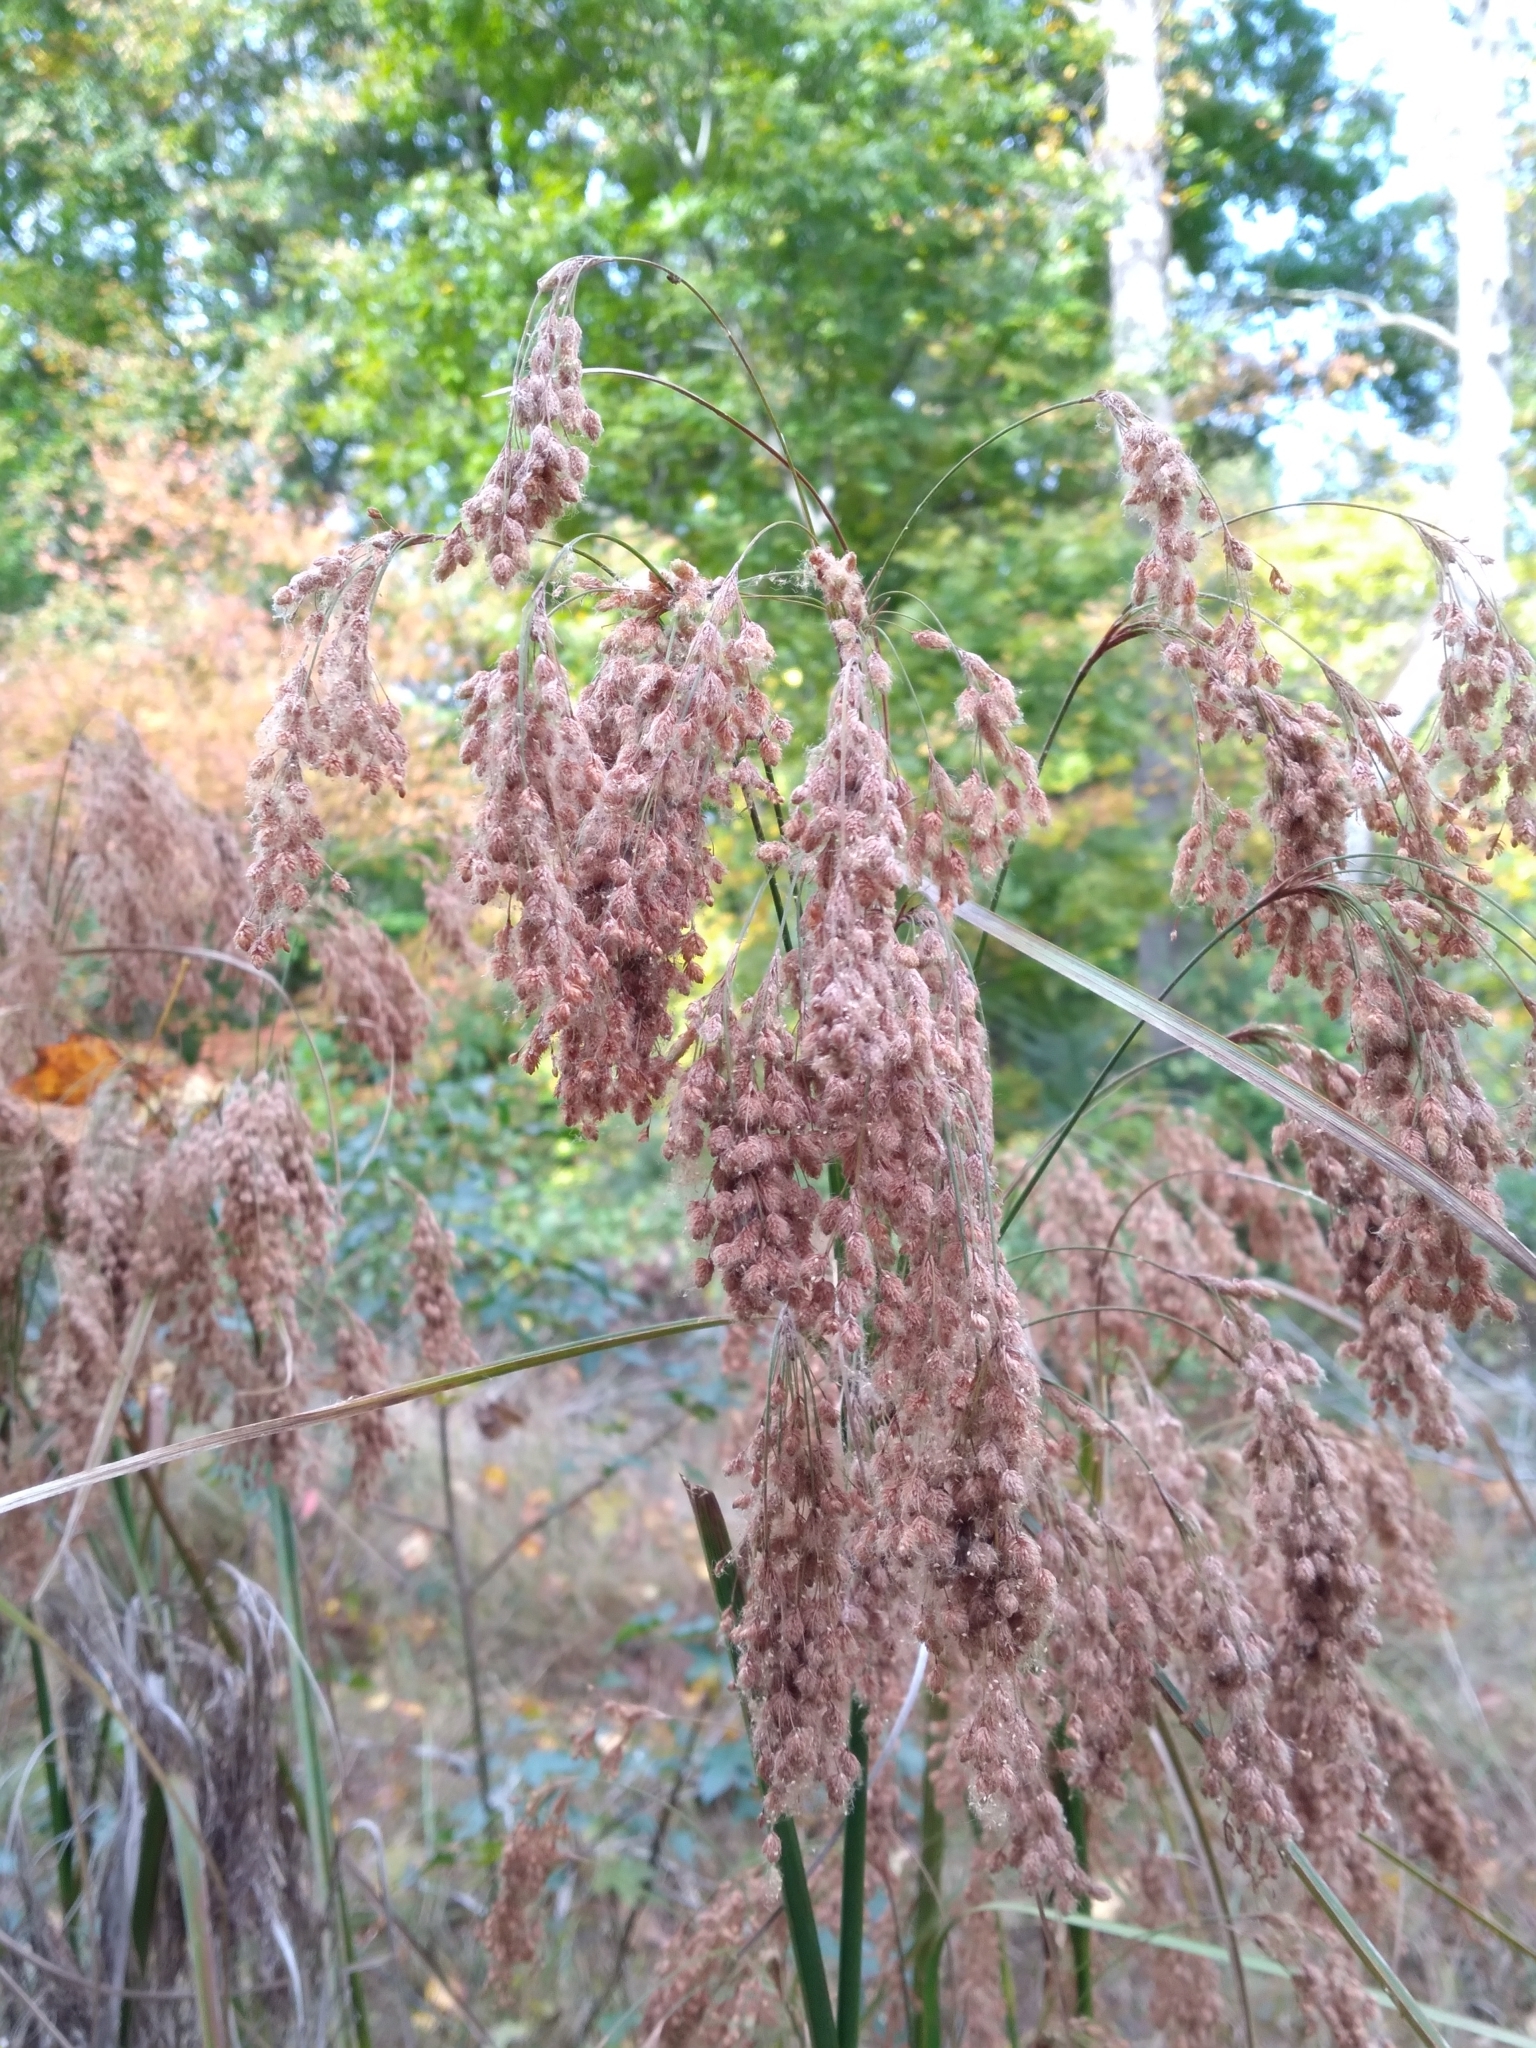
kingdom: Plantae
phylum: Tracheophyta
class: Liliopsida
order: Poales
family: Cyperaceae
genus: Scirpus
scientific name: Scirpus cyperinus
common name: Black-sheathed bulrush
